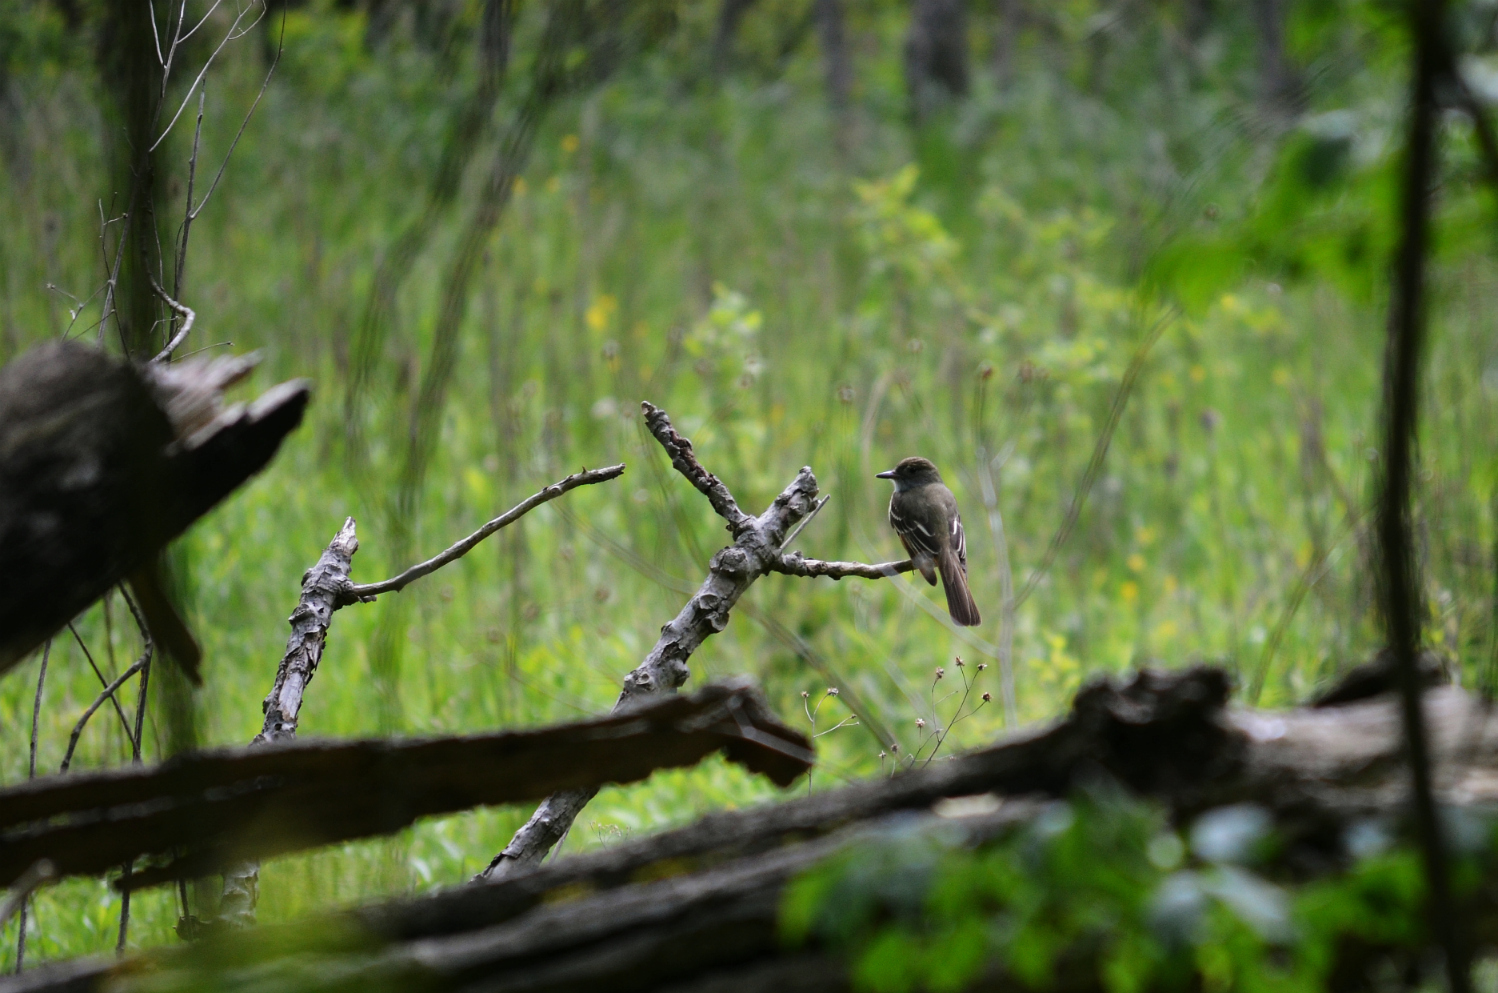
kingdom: Animalia
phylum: Chordata
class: Aves
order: Passeriformes
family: Tyrannidae
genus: Contopus
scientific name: Contopus virens
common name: Eastern wood-pewee
